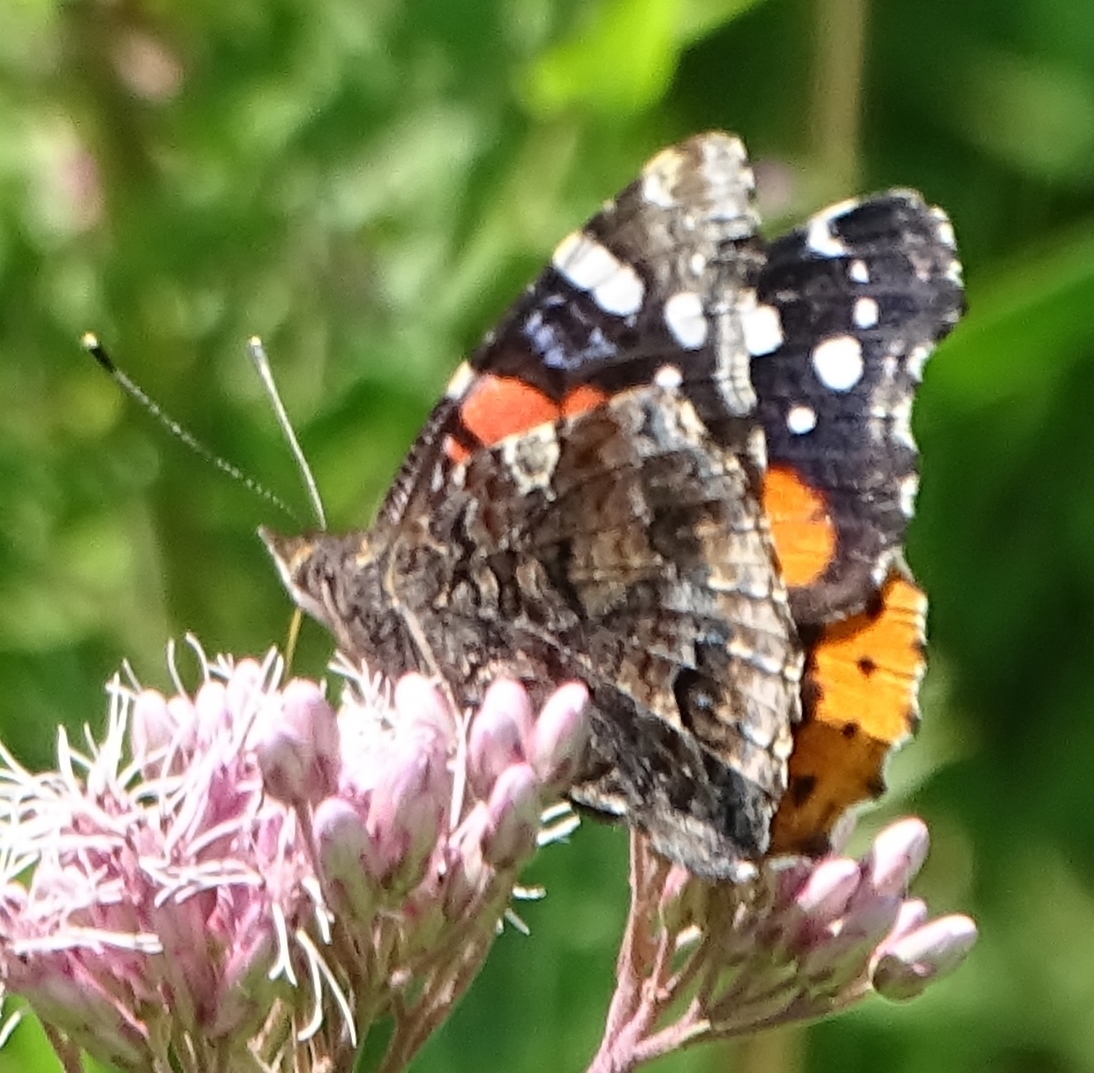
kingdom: Animalia
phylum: Arthropoda
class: Insecta
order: Lepidoptera
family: Nymphalidae
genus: Vanessa
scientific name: Vanessa atalanta
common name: Red admiral
